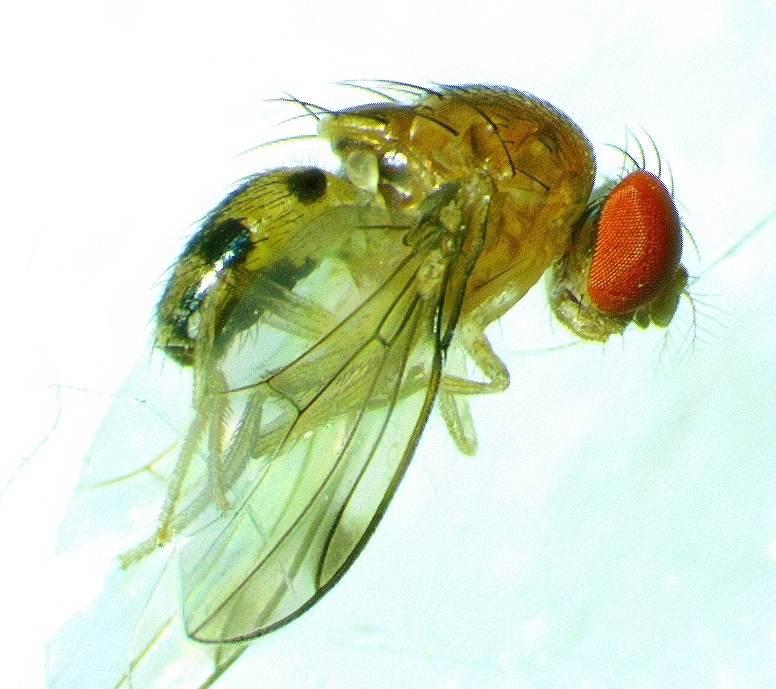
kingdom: Animalia
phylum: Arthropoda
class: Insecta
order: Diptera
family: Drosophilidae
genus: Leucophenga
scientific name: Leucophenga varia
